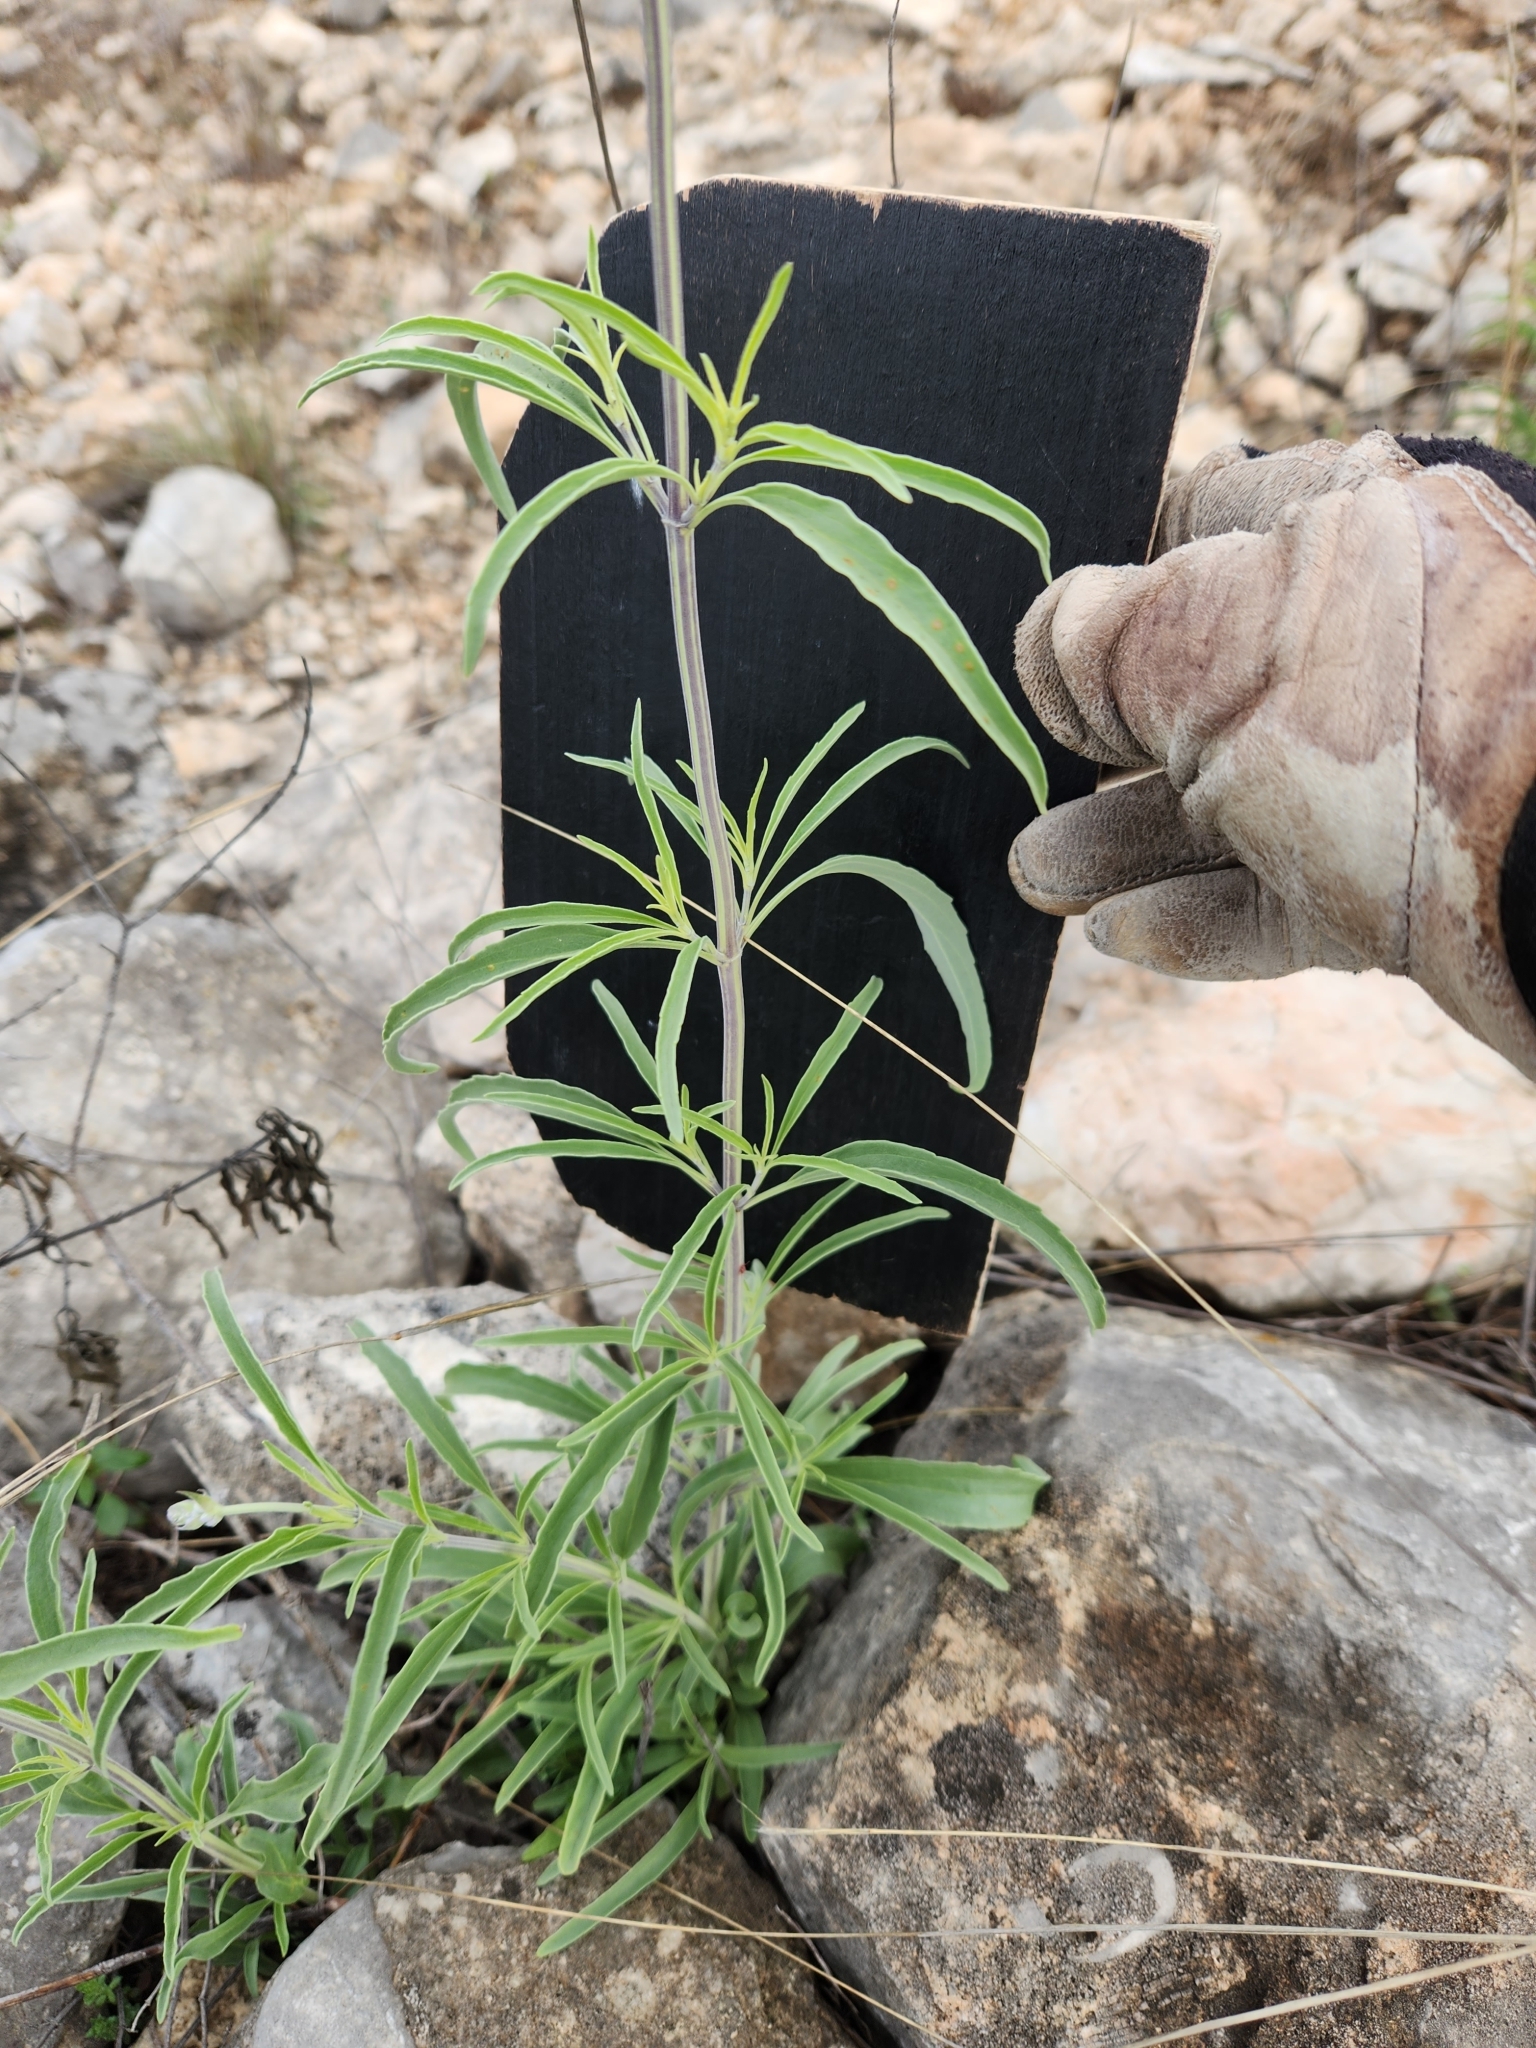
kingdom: Plantae
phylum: Tracheophyta
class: Magnoliopsida
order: Lamiales
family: Lamiaceae
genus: Salvia
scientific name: Salvia farinacea
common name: Mealy sage
